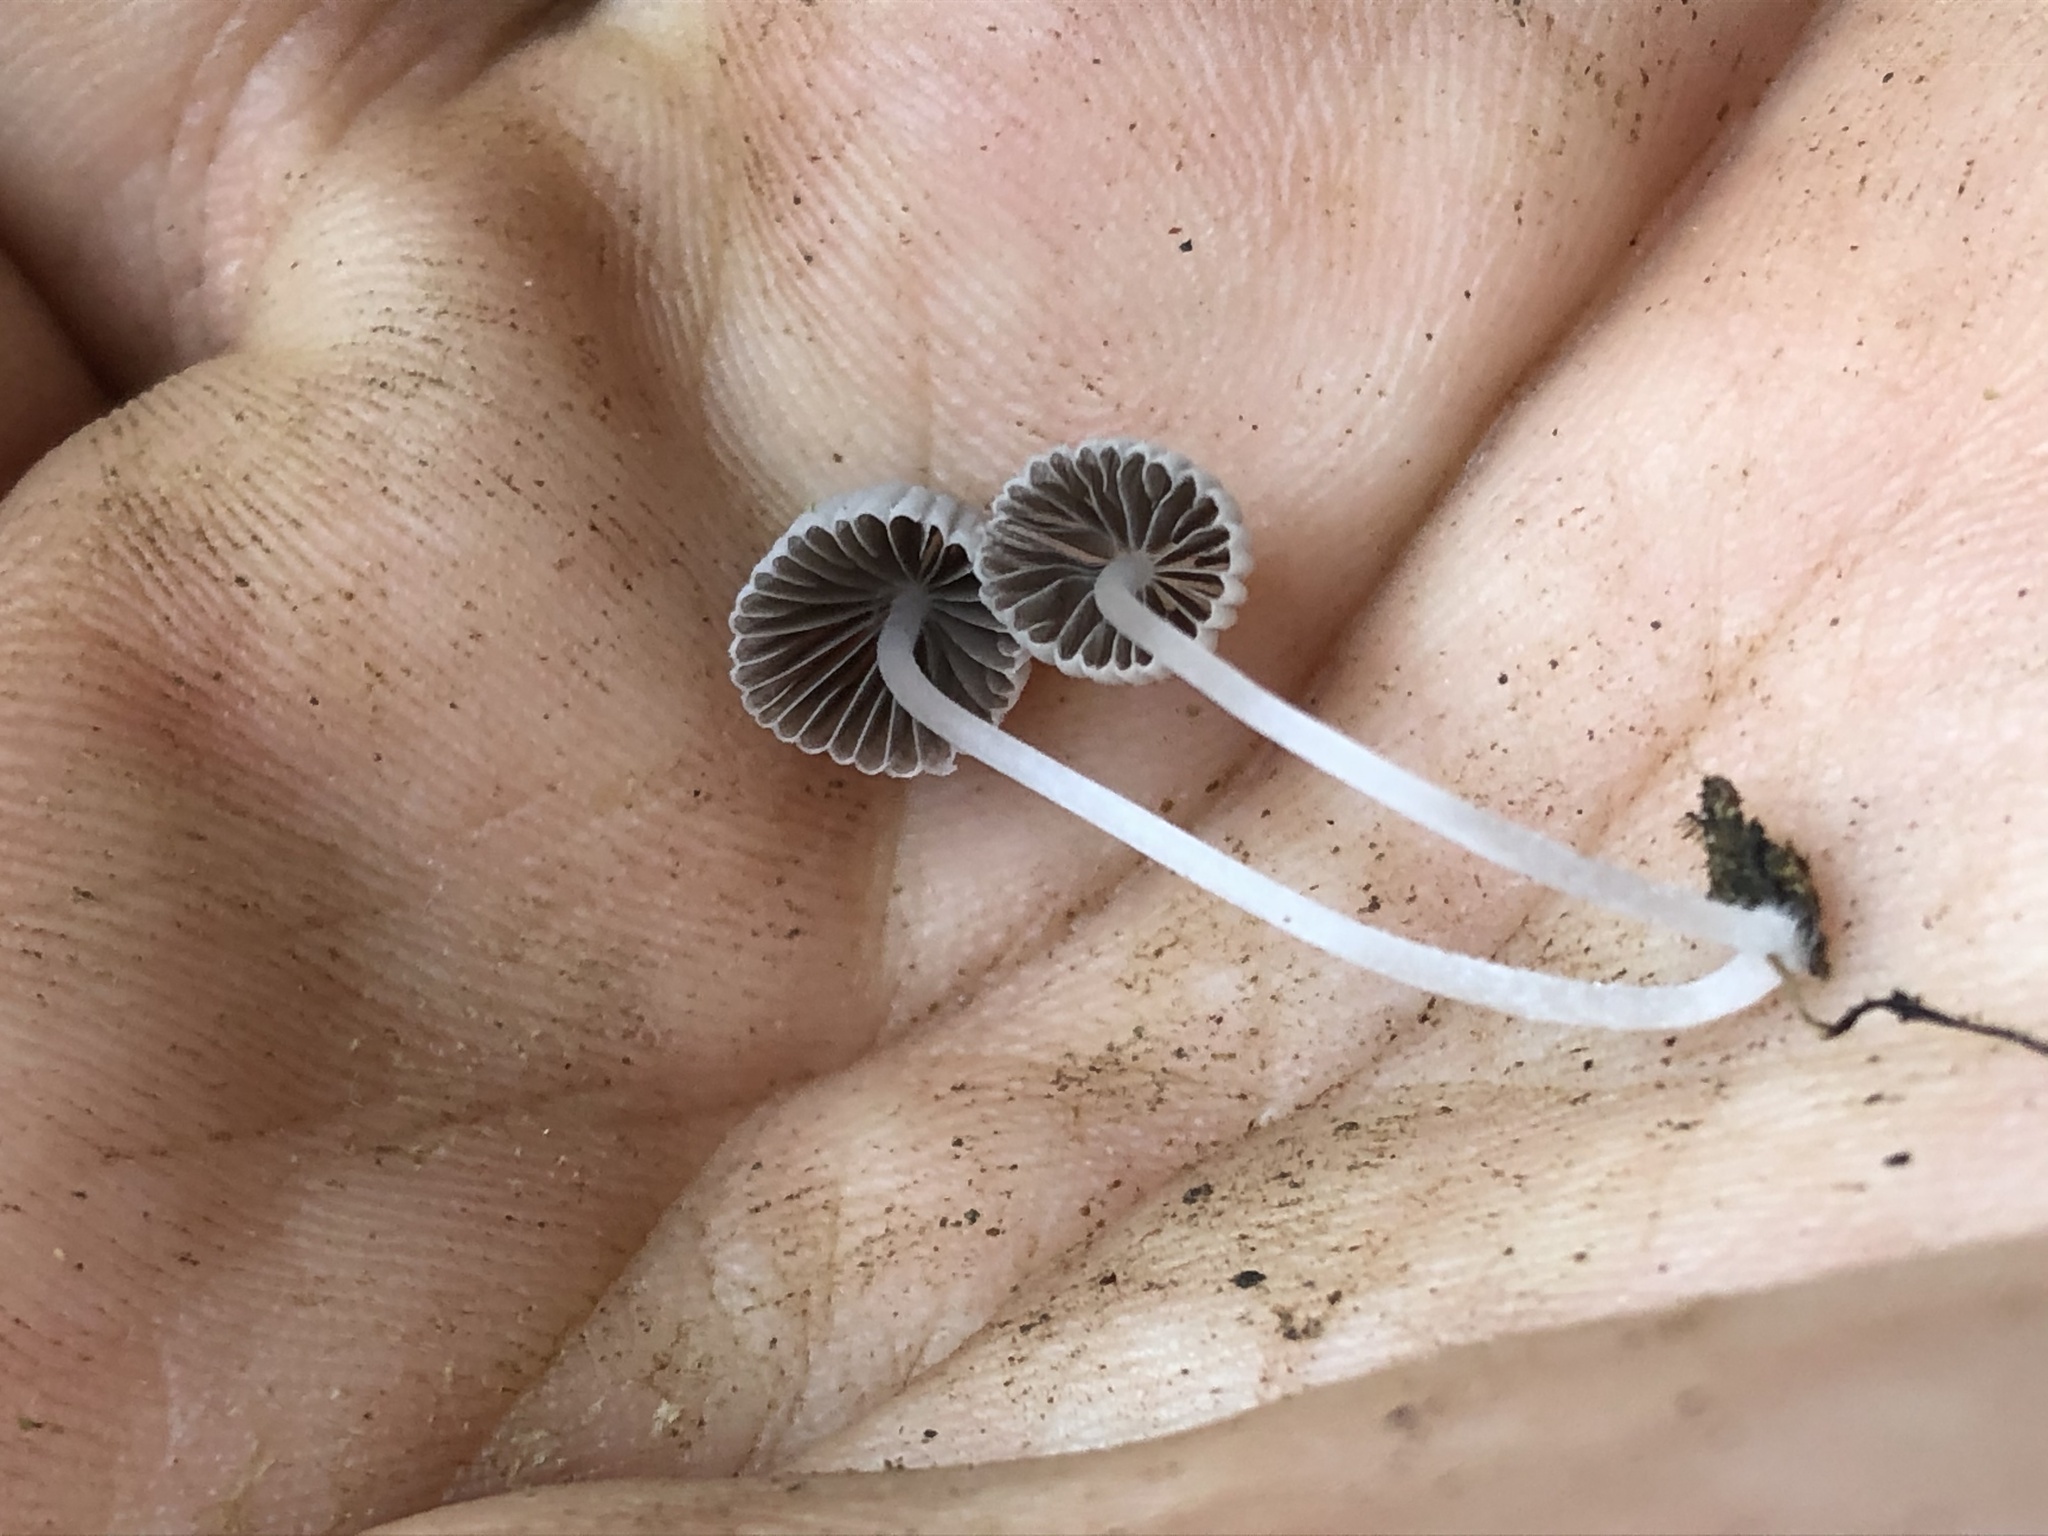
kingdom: Fungi
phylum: Basidiomycota
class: Agaricomycetes
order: Agaricales
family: Psathyrellaceae
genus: Coprinellus
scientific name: Coprinellus disseminatus
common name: Fairies' bonnets
